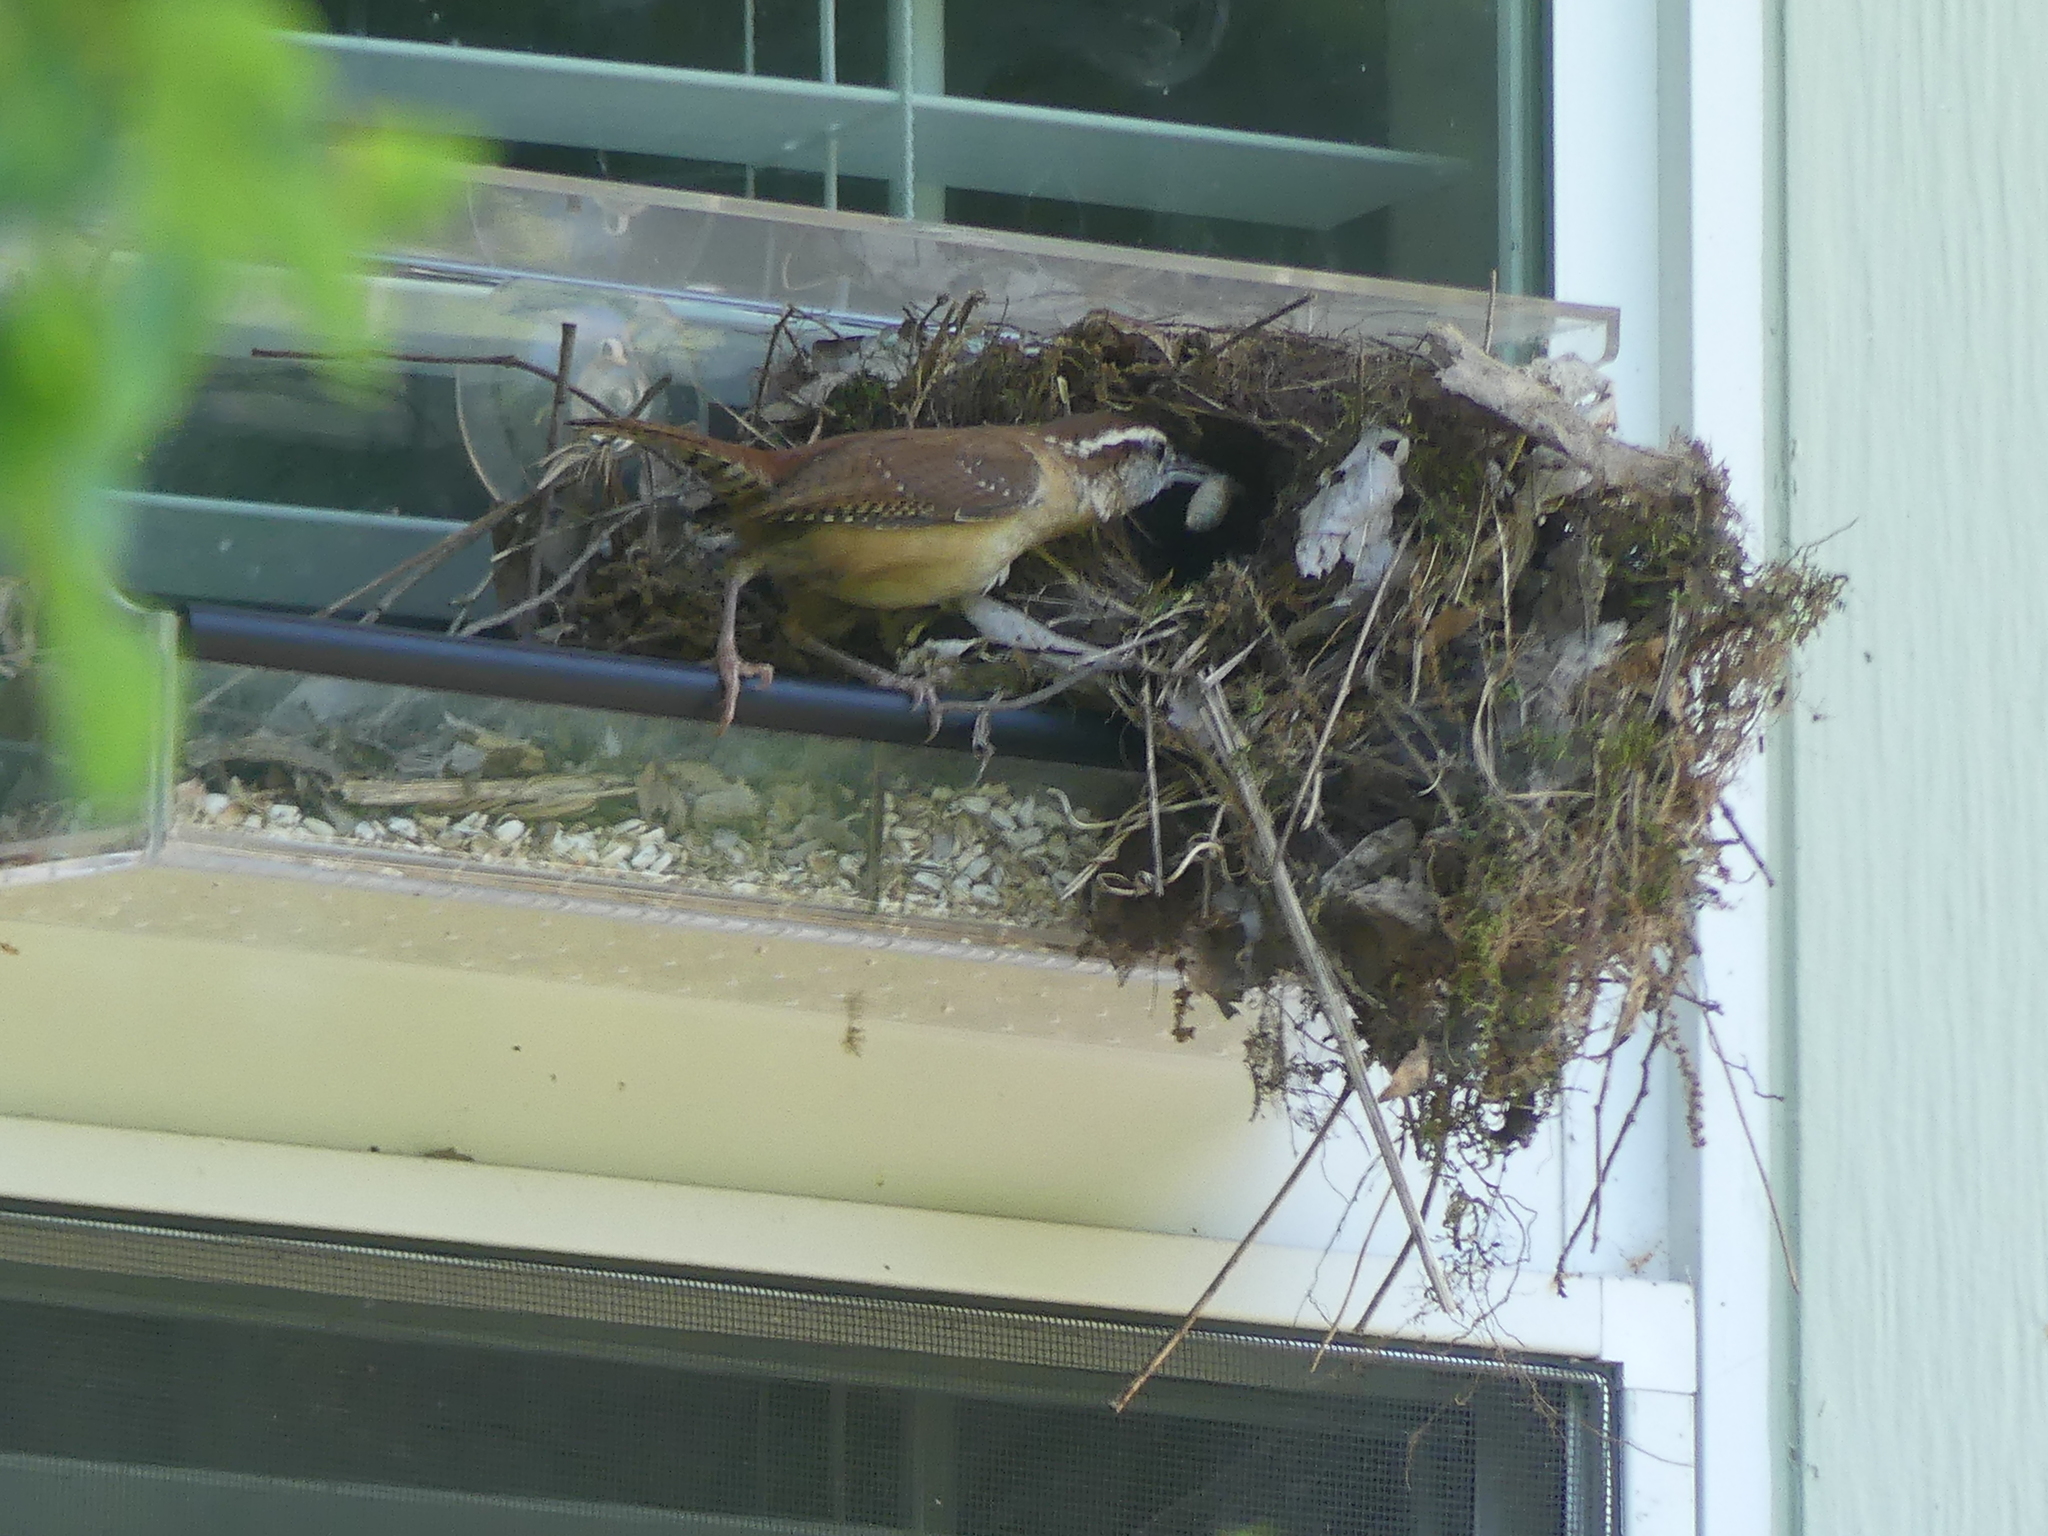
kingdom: Animalia
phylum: Chordata
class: Aves
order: Passeriformes
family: Troglodytidae
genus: Thryothorus
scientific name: Thryothorus ludovicianus
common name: Carolina wren
